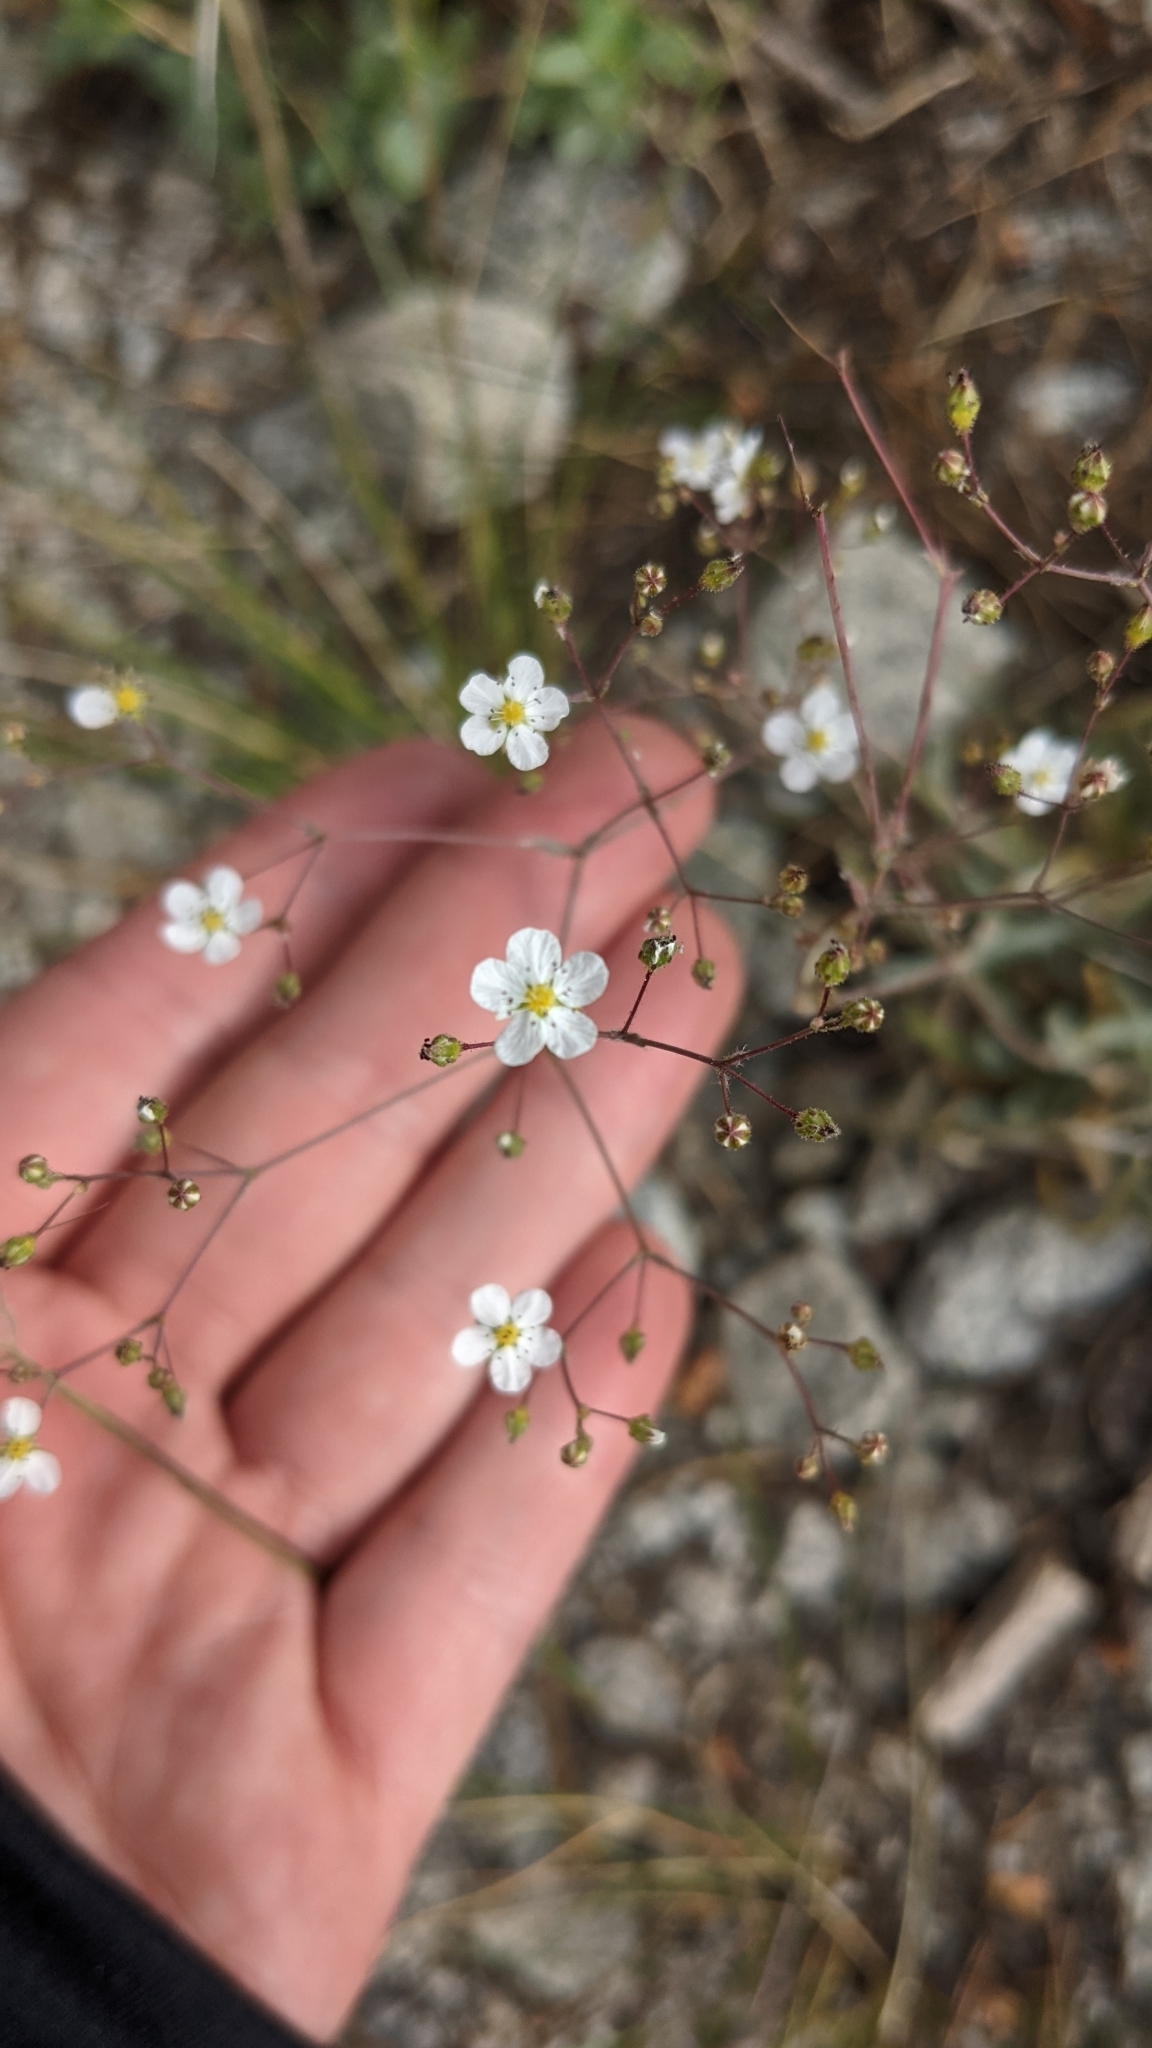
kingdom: Plantae
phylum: Tracheophyta
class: Magnoliopsida
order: Rosales
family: Rosaceae
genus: Potentilla
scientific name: Potentilla santolinoides
